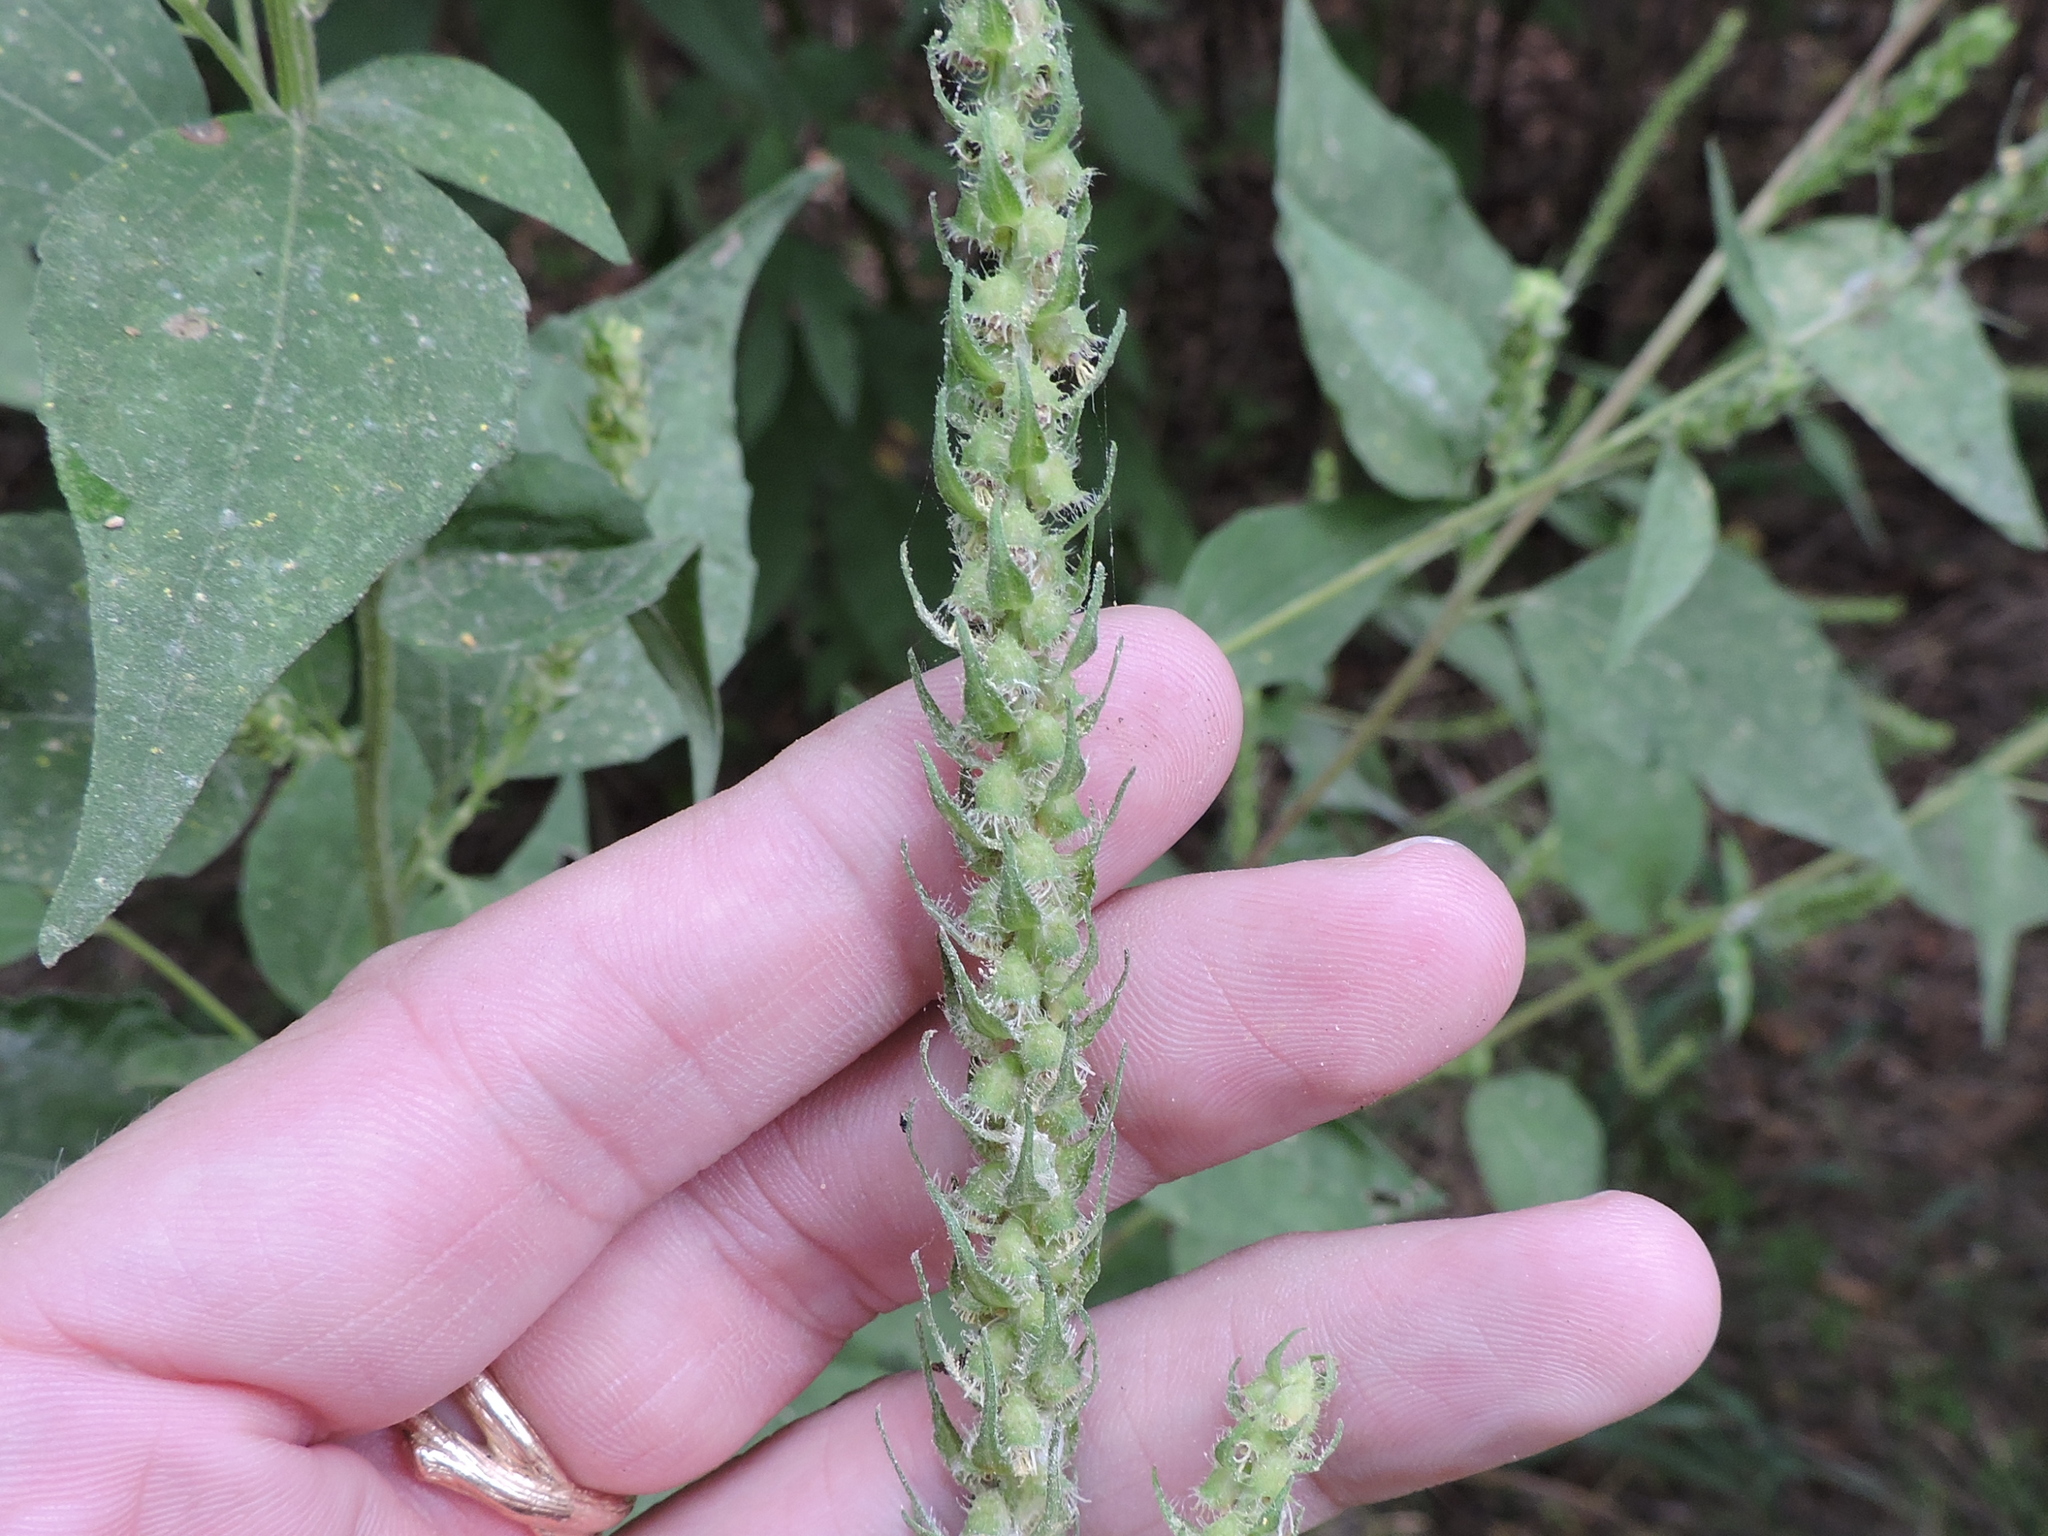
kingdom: Plantae
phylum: Tracheophyta
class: Magnoliopsida
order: Asterales
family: Asteraceae
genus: Iva
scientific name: Iva annua
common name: Marsh-elder
